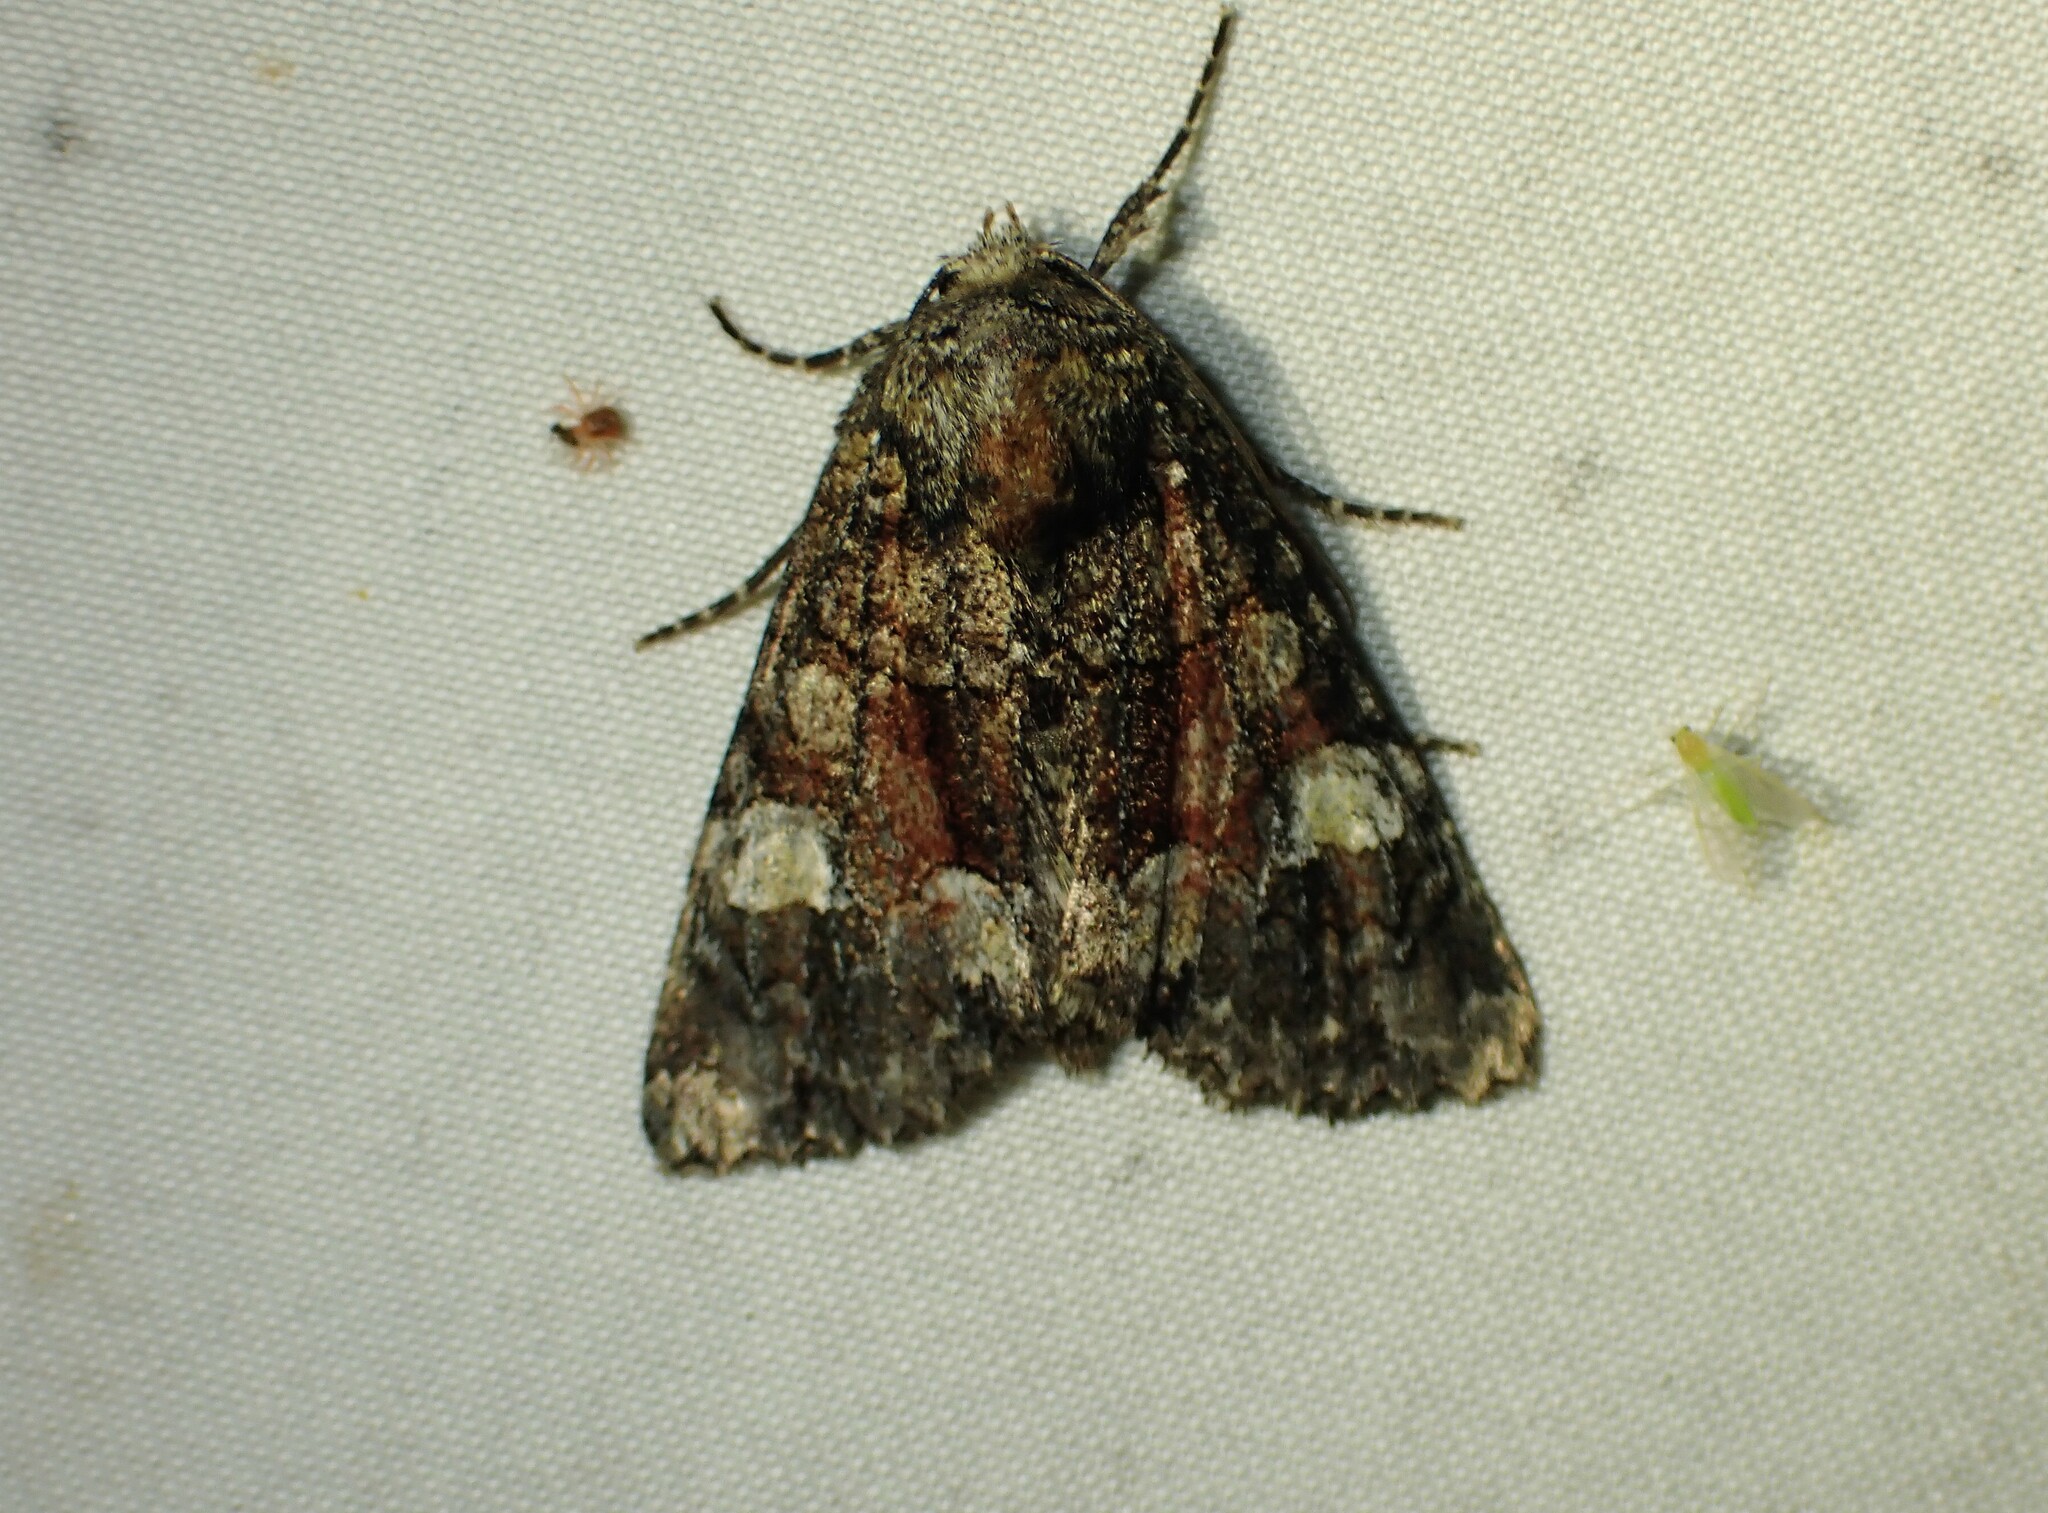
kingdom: Animalia
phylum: Arthropoda
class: Insecta
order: Lepidoptera
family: Noctuidae
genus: Fishia
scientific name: Fishia illocata
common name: Wandering brocade moth
